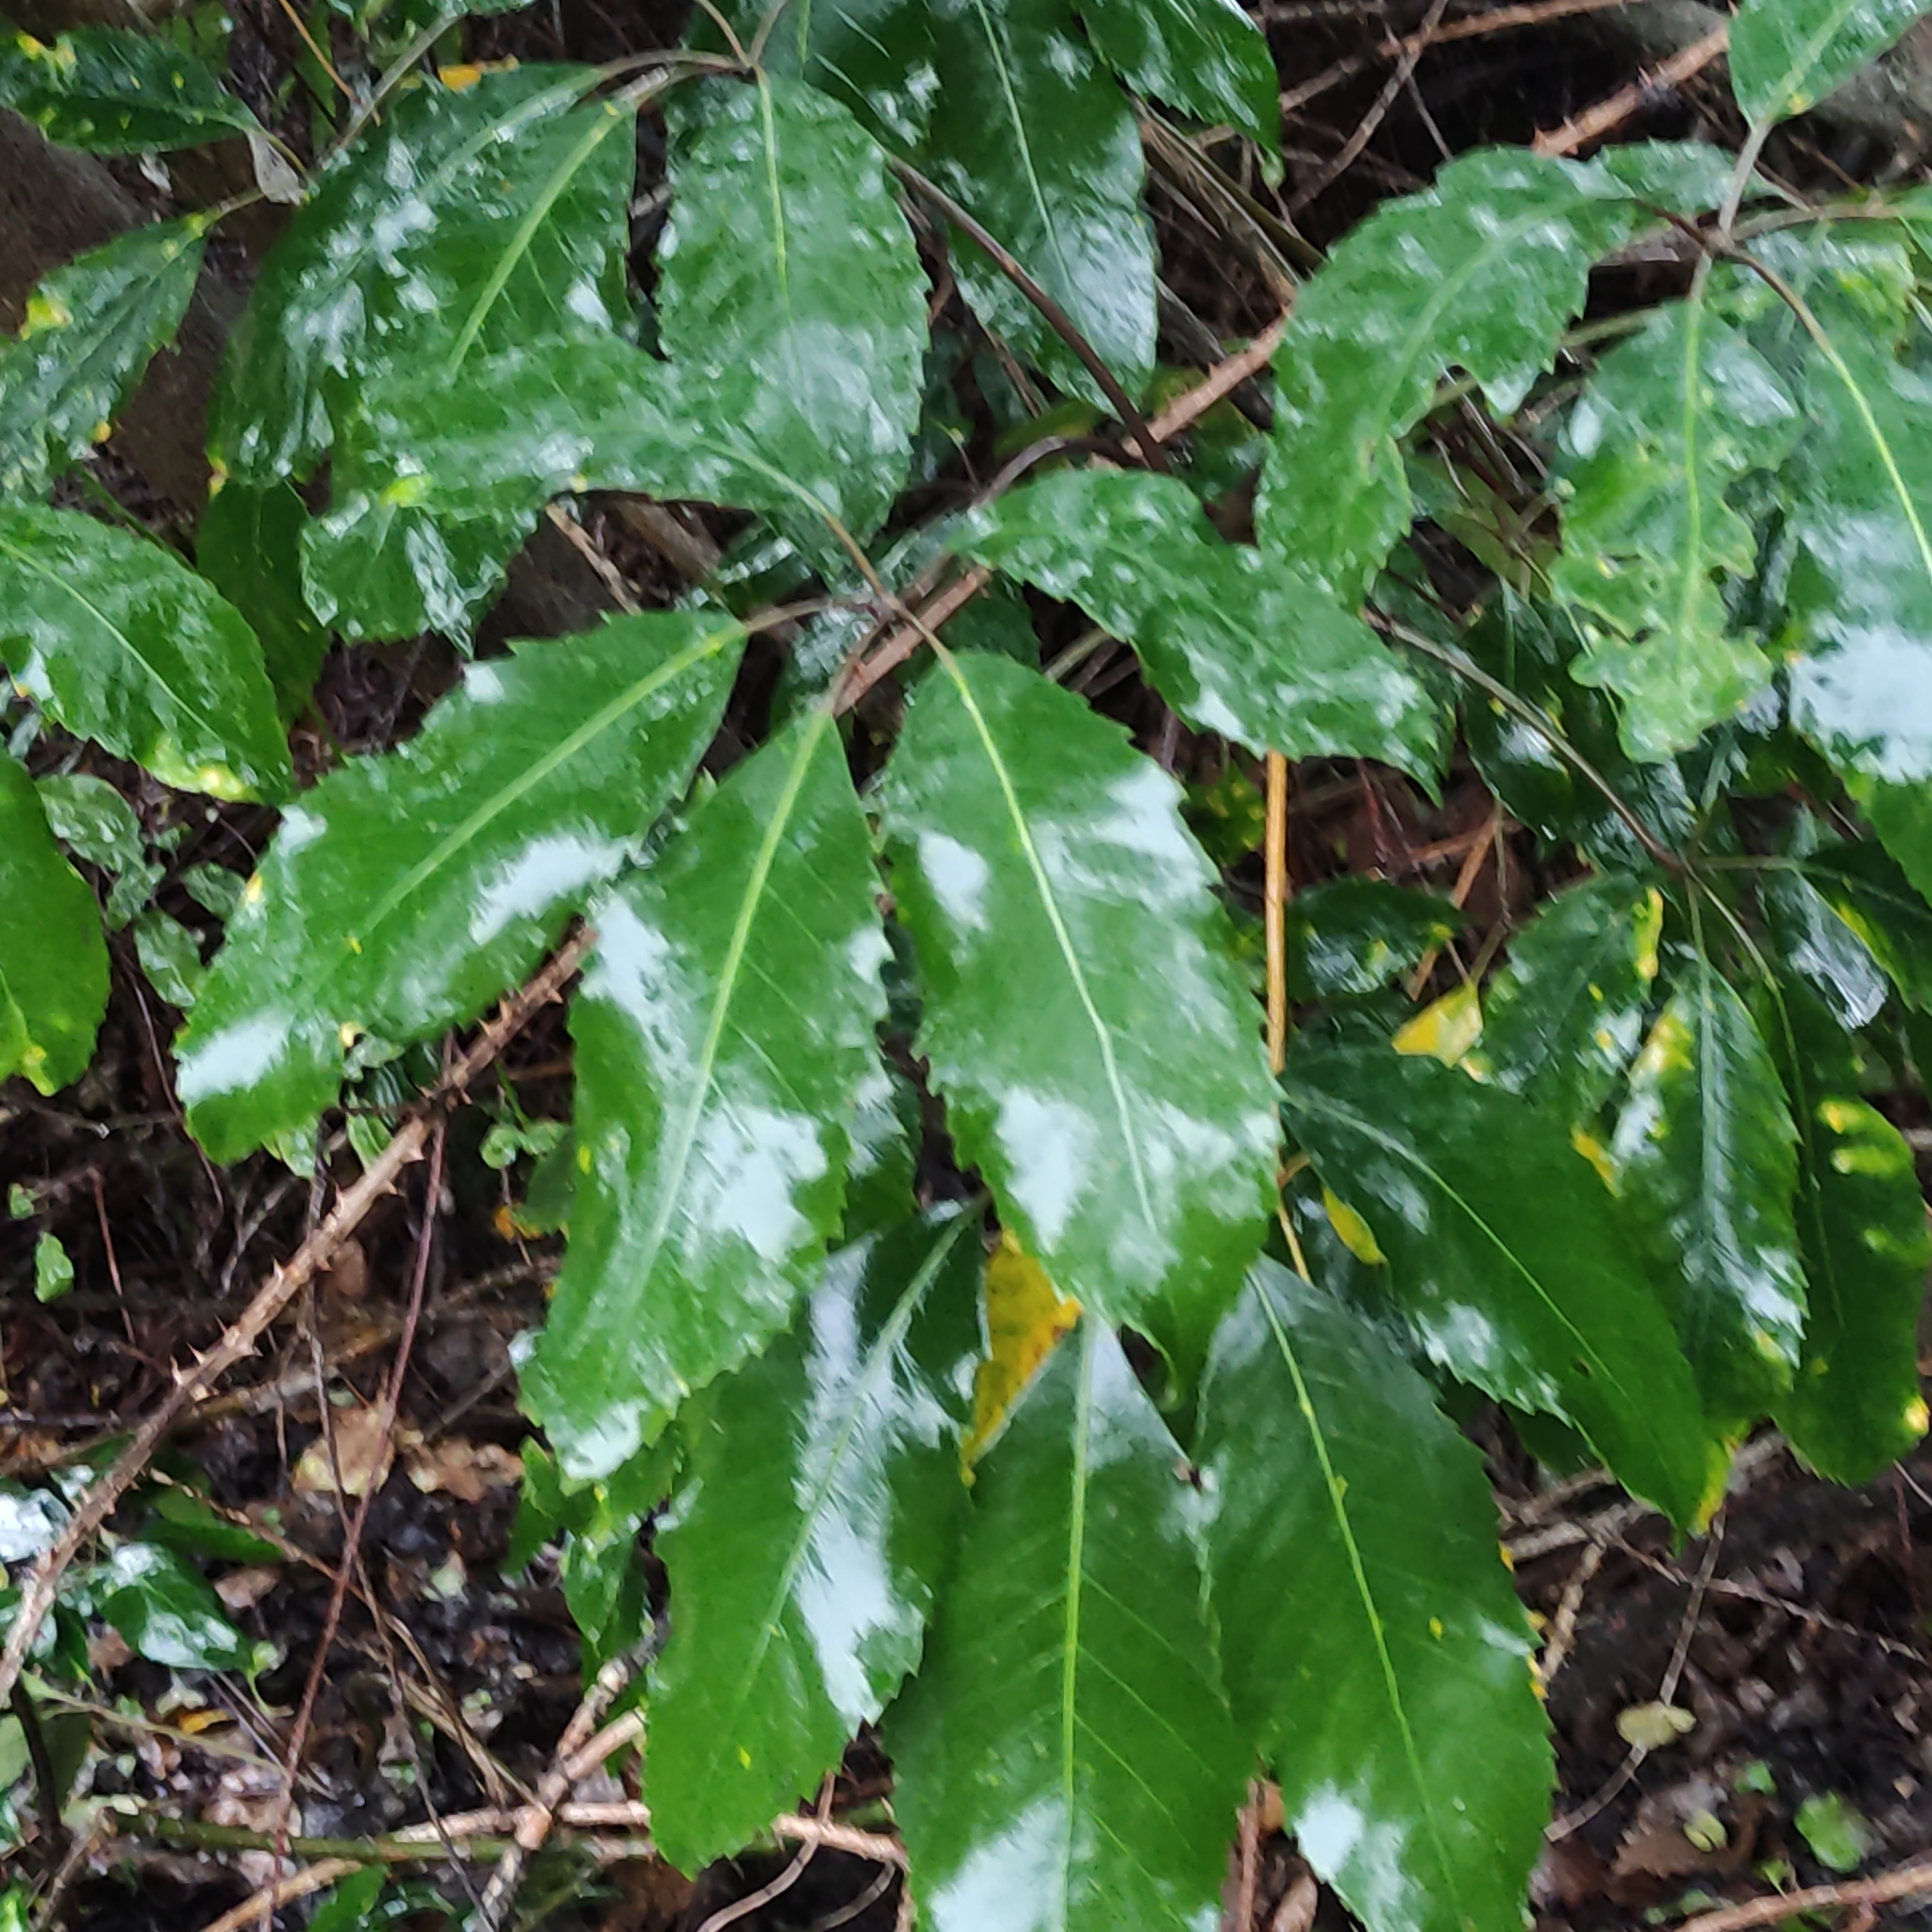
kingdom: Plantae
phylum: Tracheophyta
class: Magnoliopsida
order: Apiales
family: Araliaceae
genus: Neopanax
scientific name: Neopanax arboreus
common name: Five-fingers
